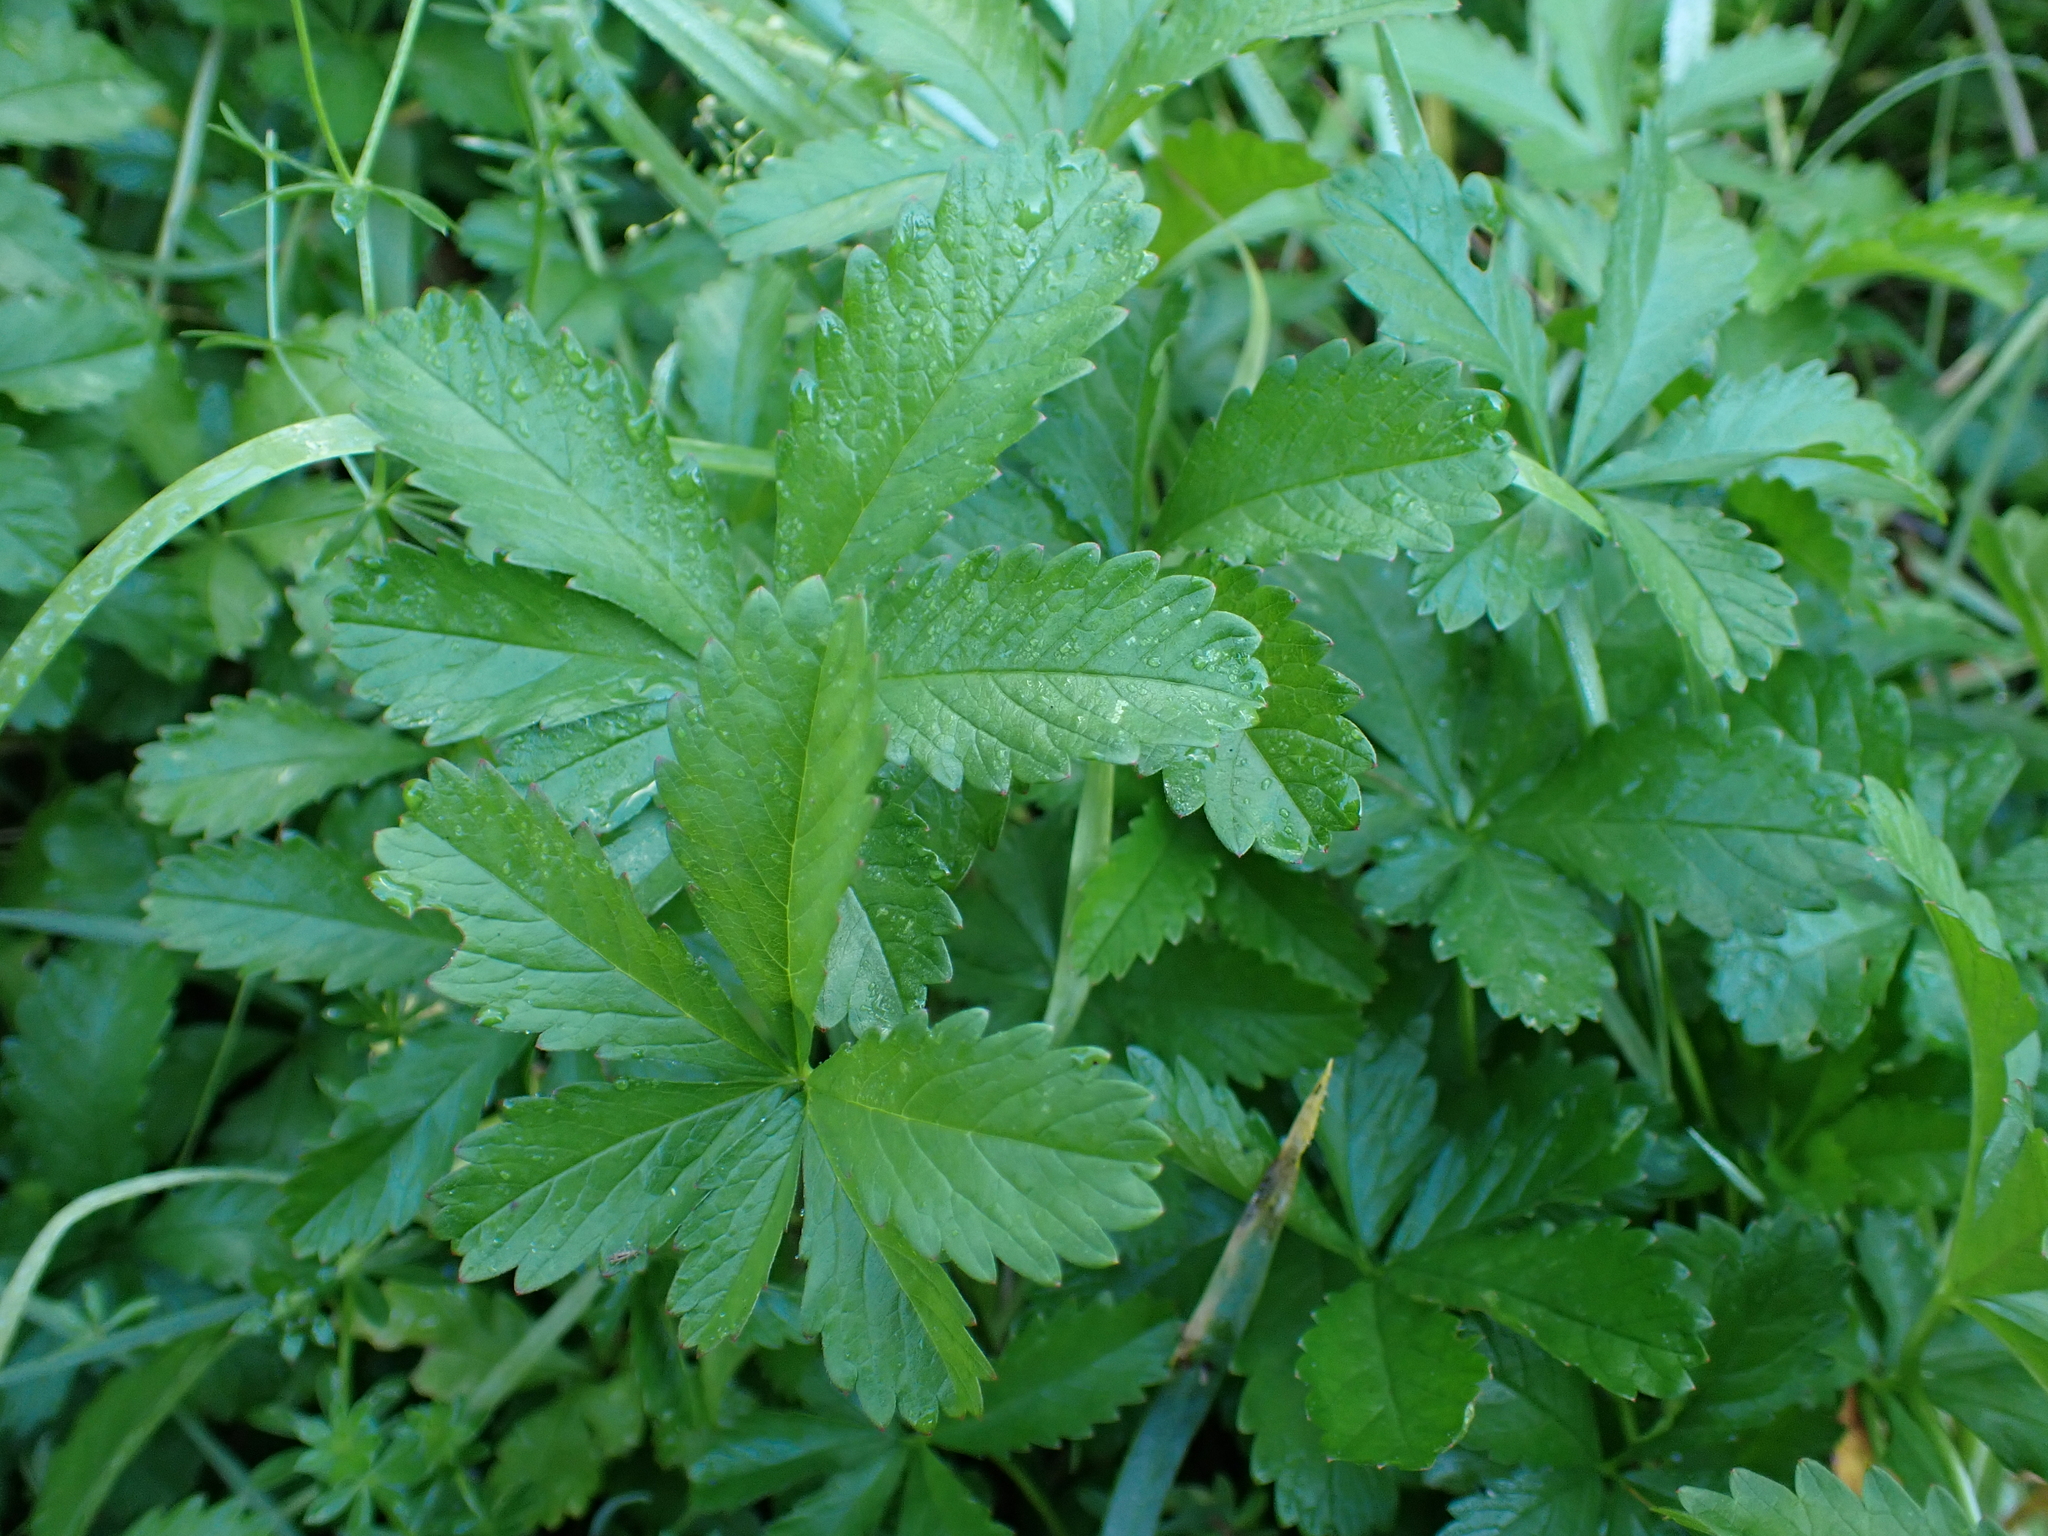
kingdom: Plantae
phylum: Tracheophyta
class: Magnoliopsida
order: Rosales
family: Rosaceae
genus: Potentilla
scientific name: Potentilla reptans
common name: Creeping cinquefoil
